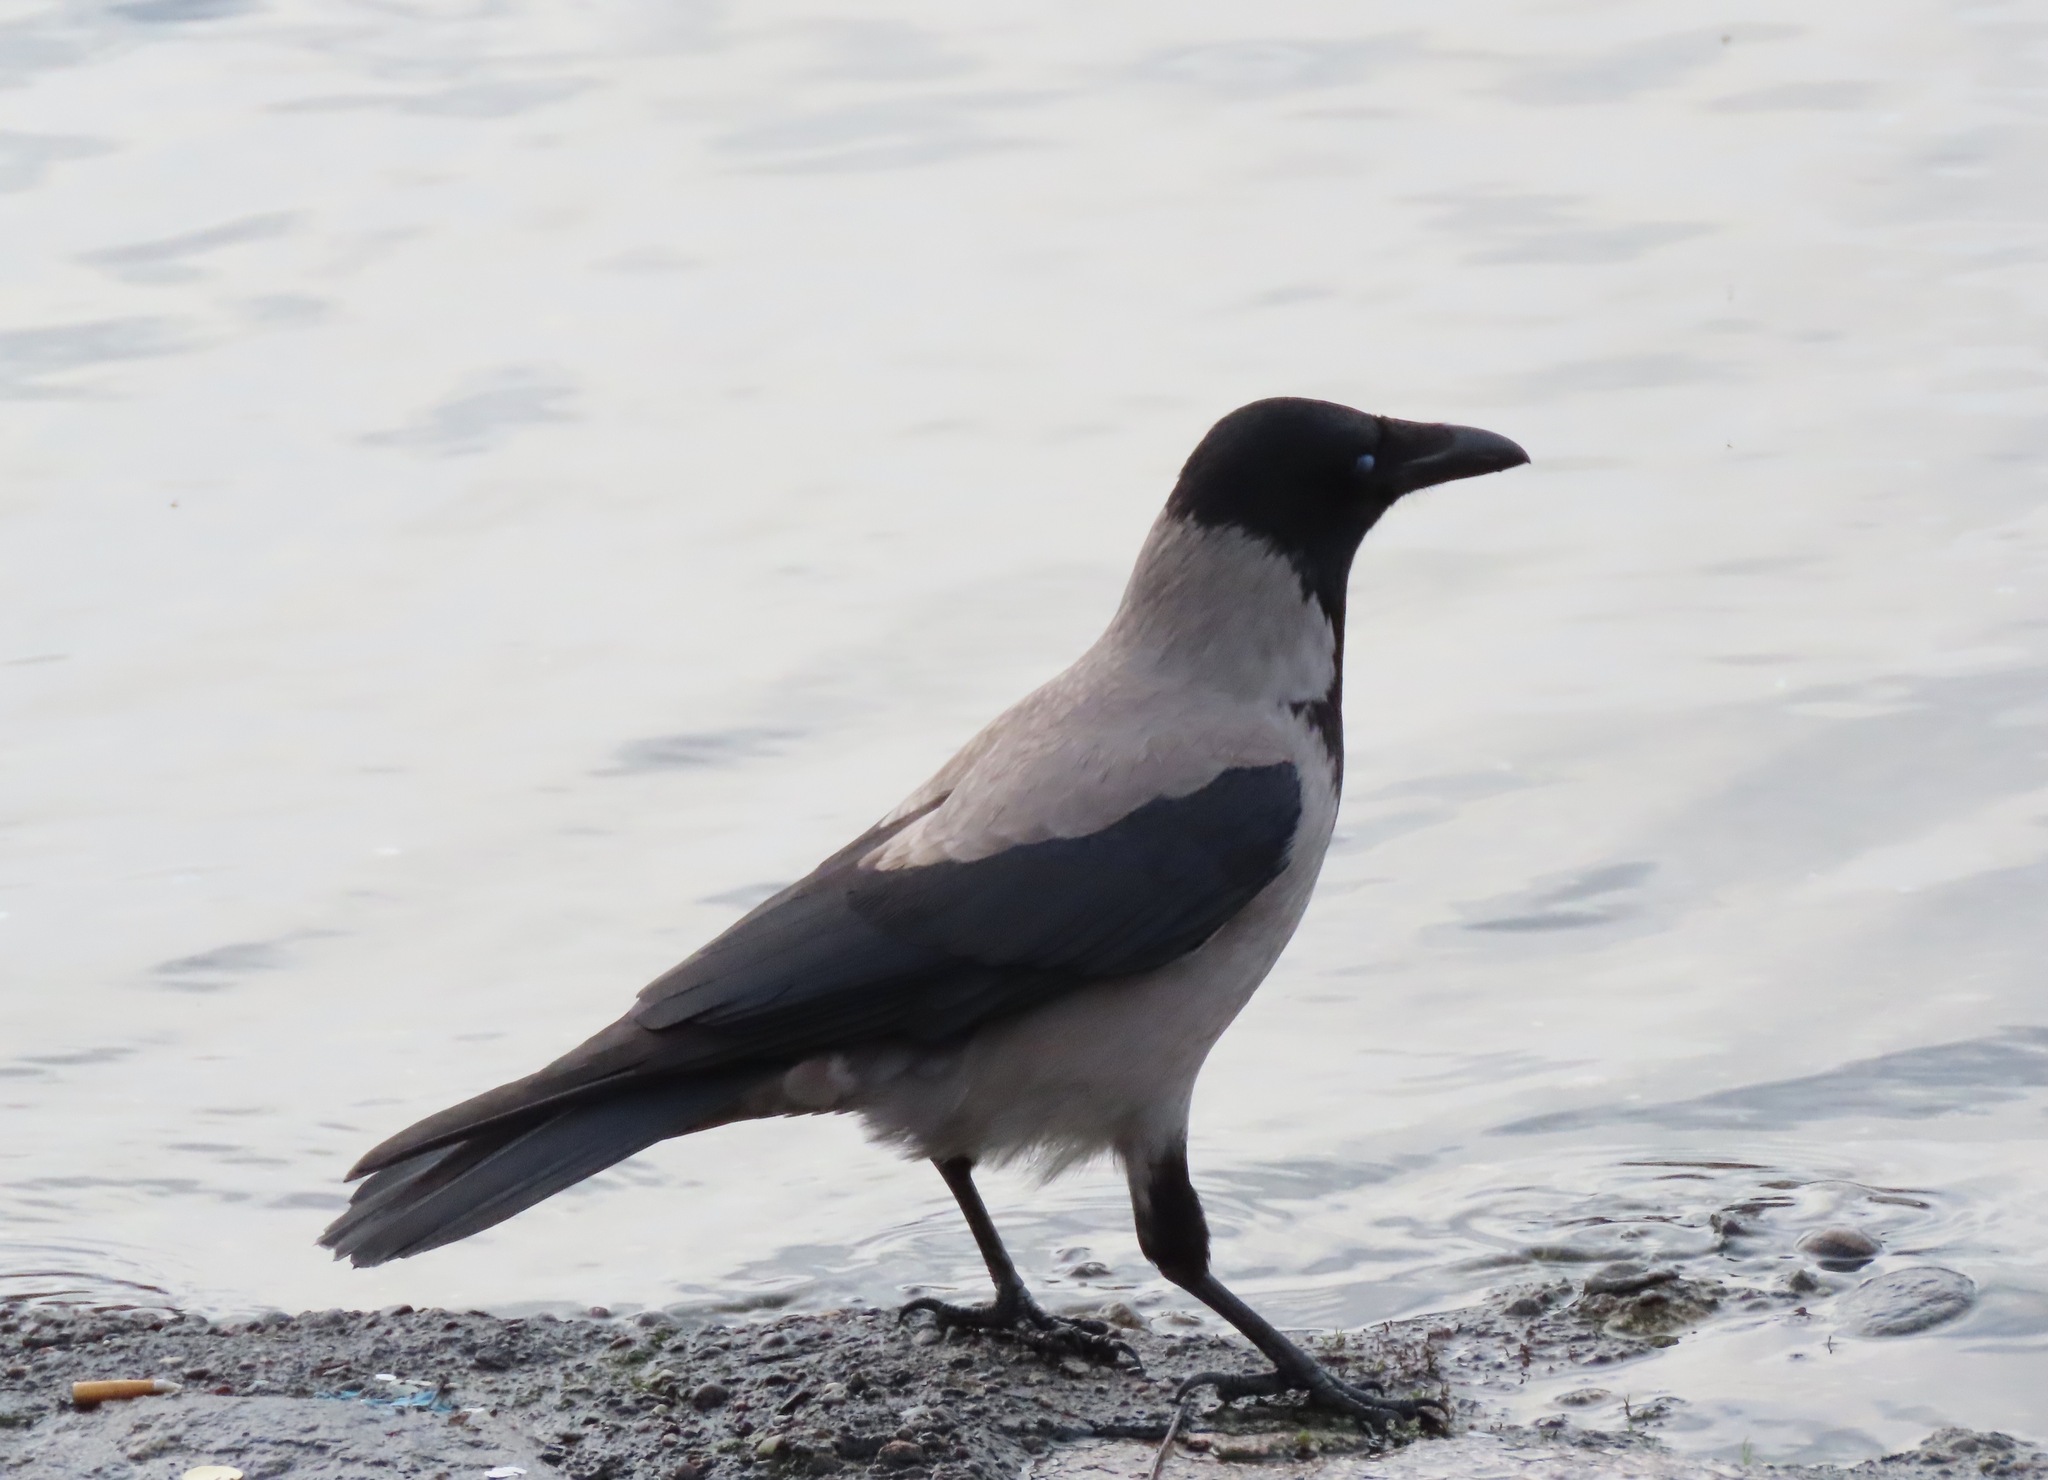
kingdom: Animalia
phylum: Chordata
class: Aves
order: Passeriformes
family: Corvidae
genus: Corvus
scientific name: Corvus cornix
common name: Hooded crow
